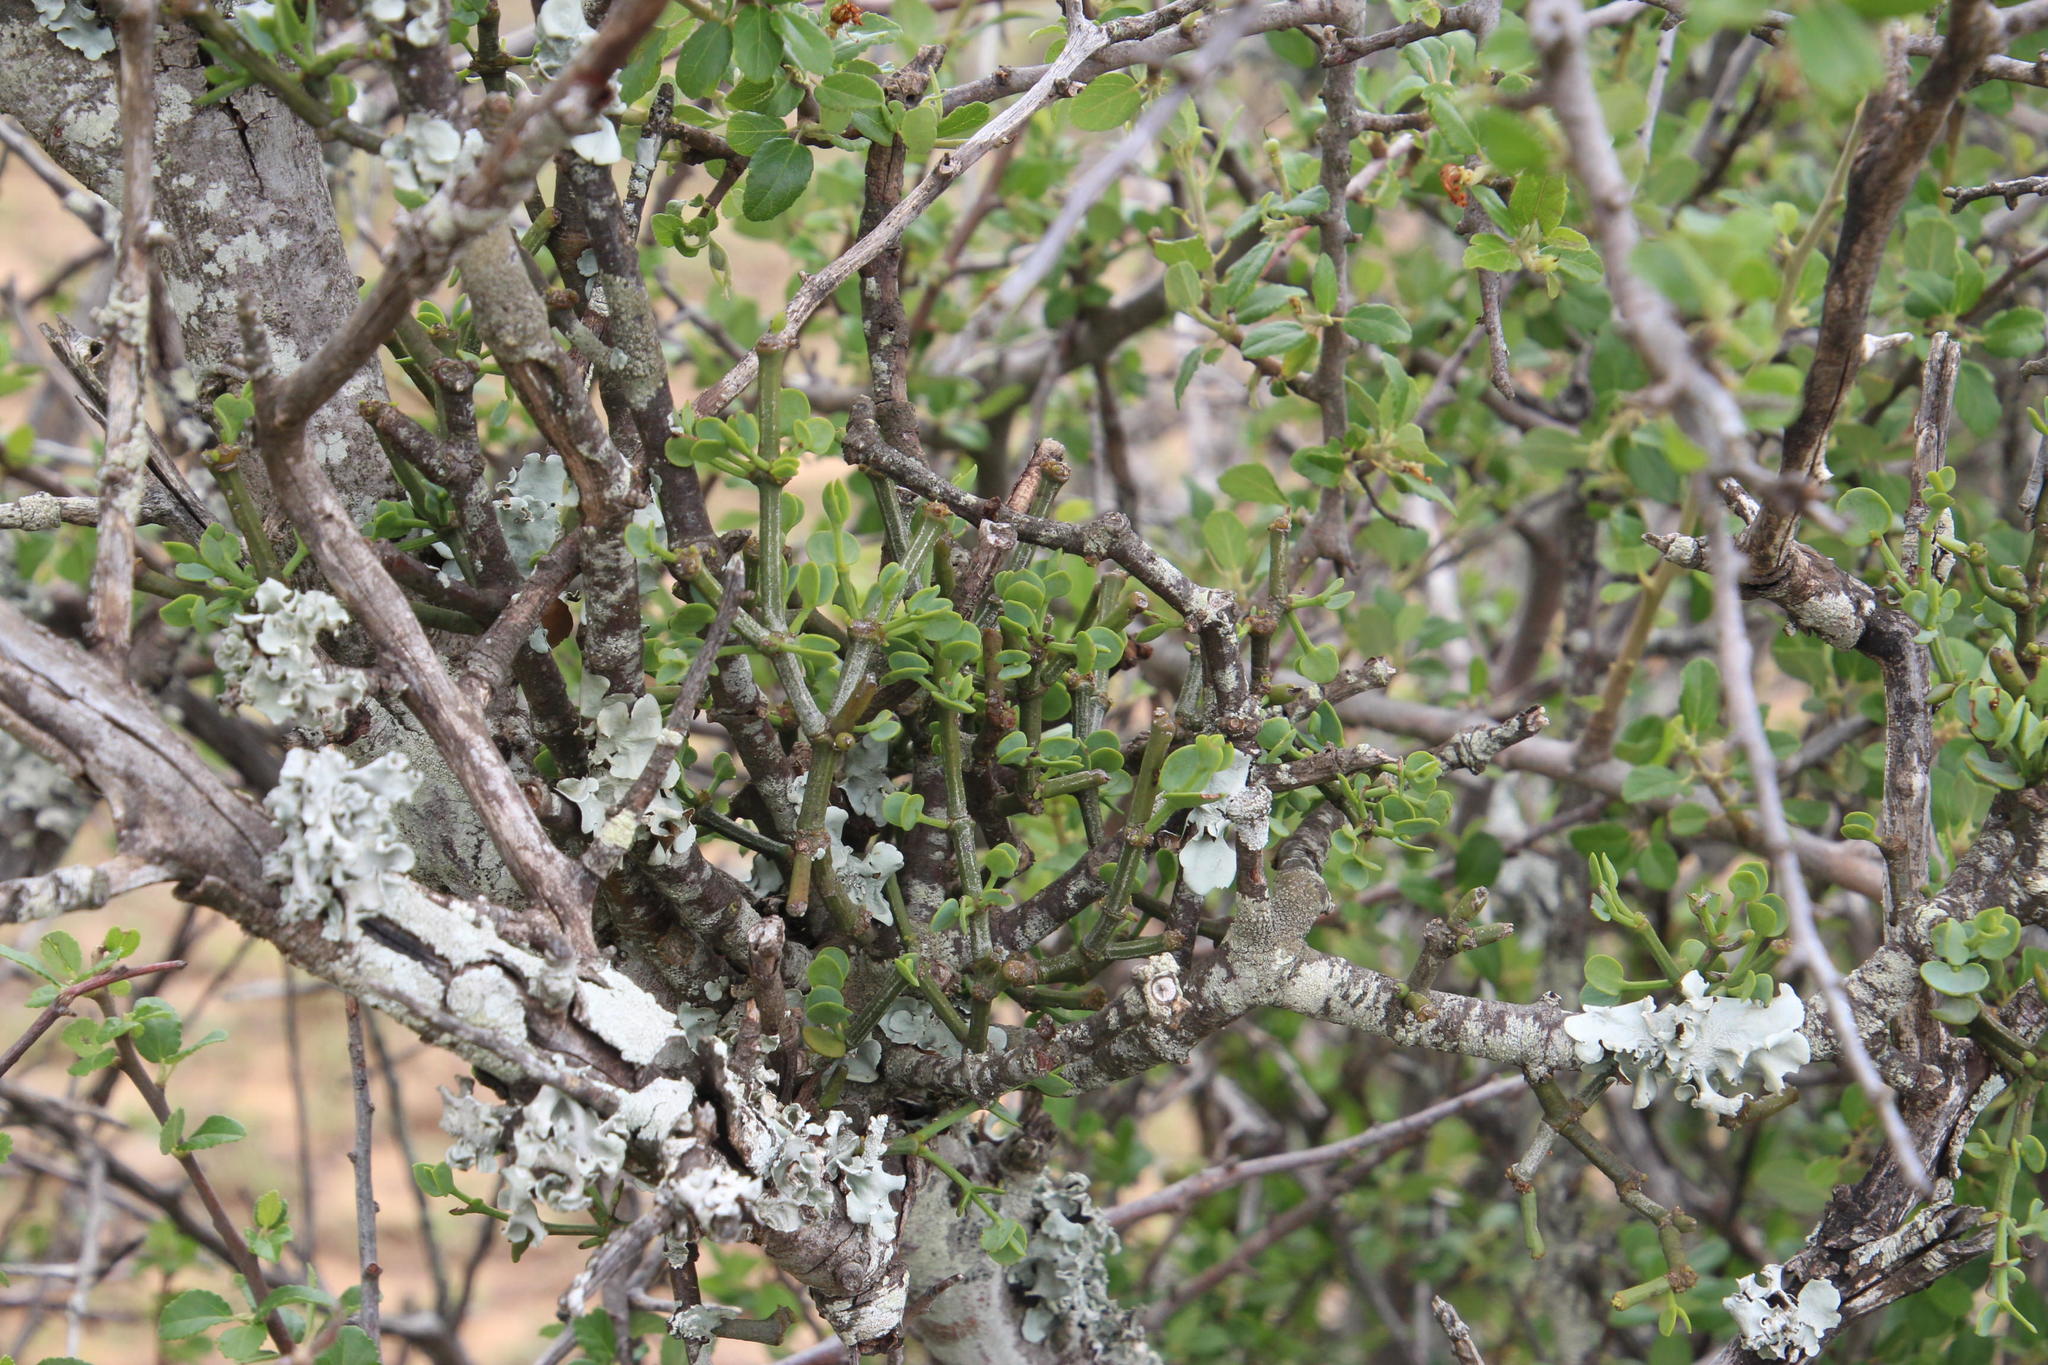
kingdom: Plantae
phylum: Tracheophyta
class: Magnoliopsida
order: Malvales
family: Malvaceae
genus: Grewia
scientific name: Grewia robusta
